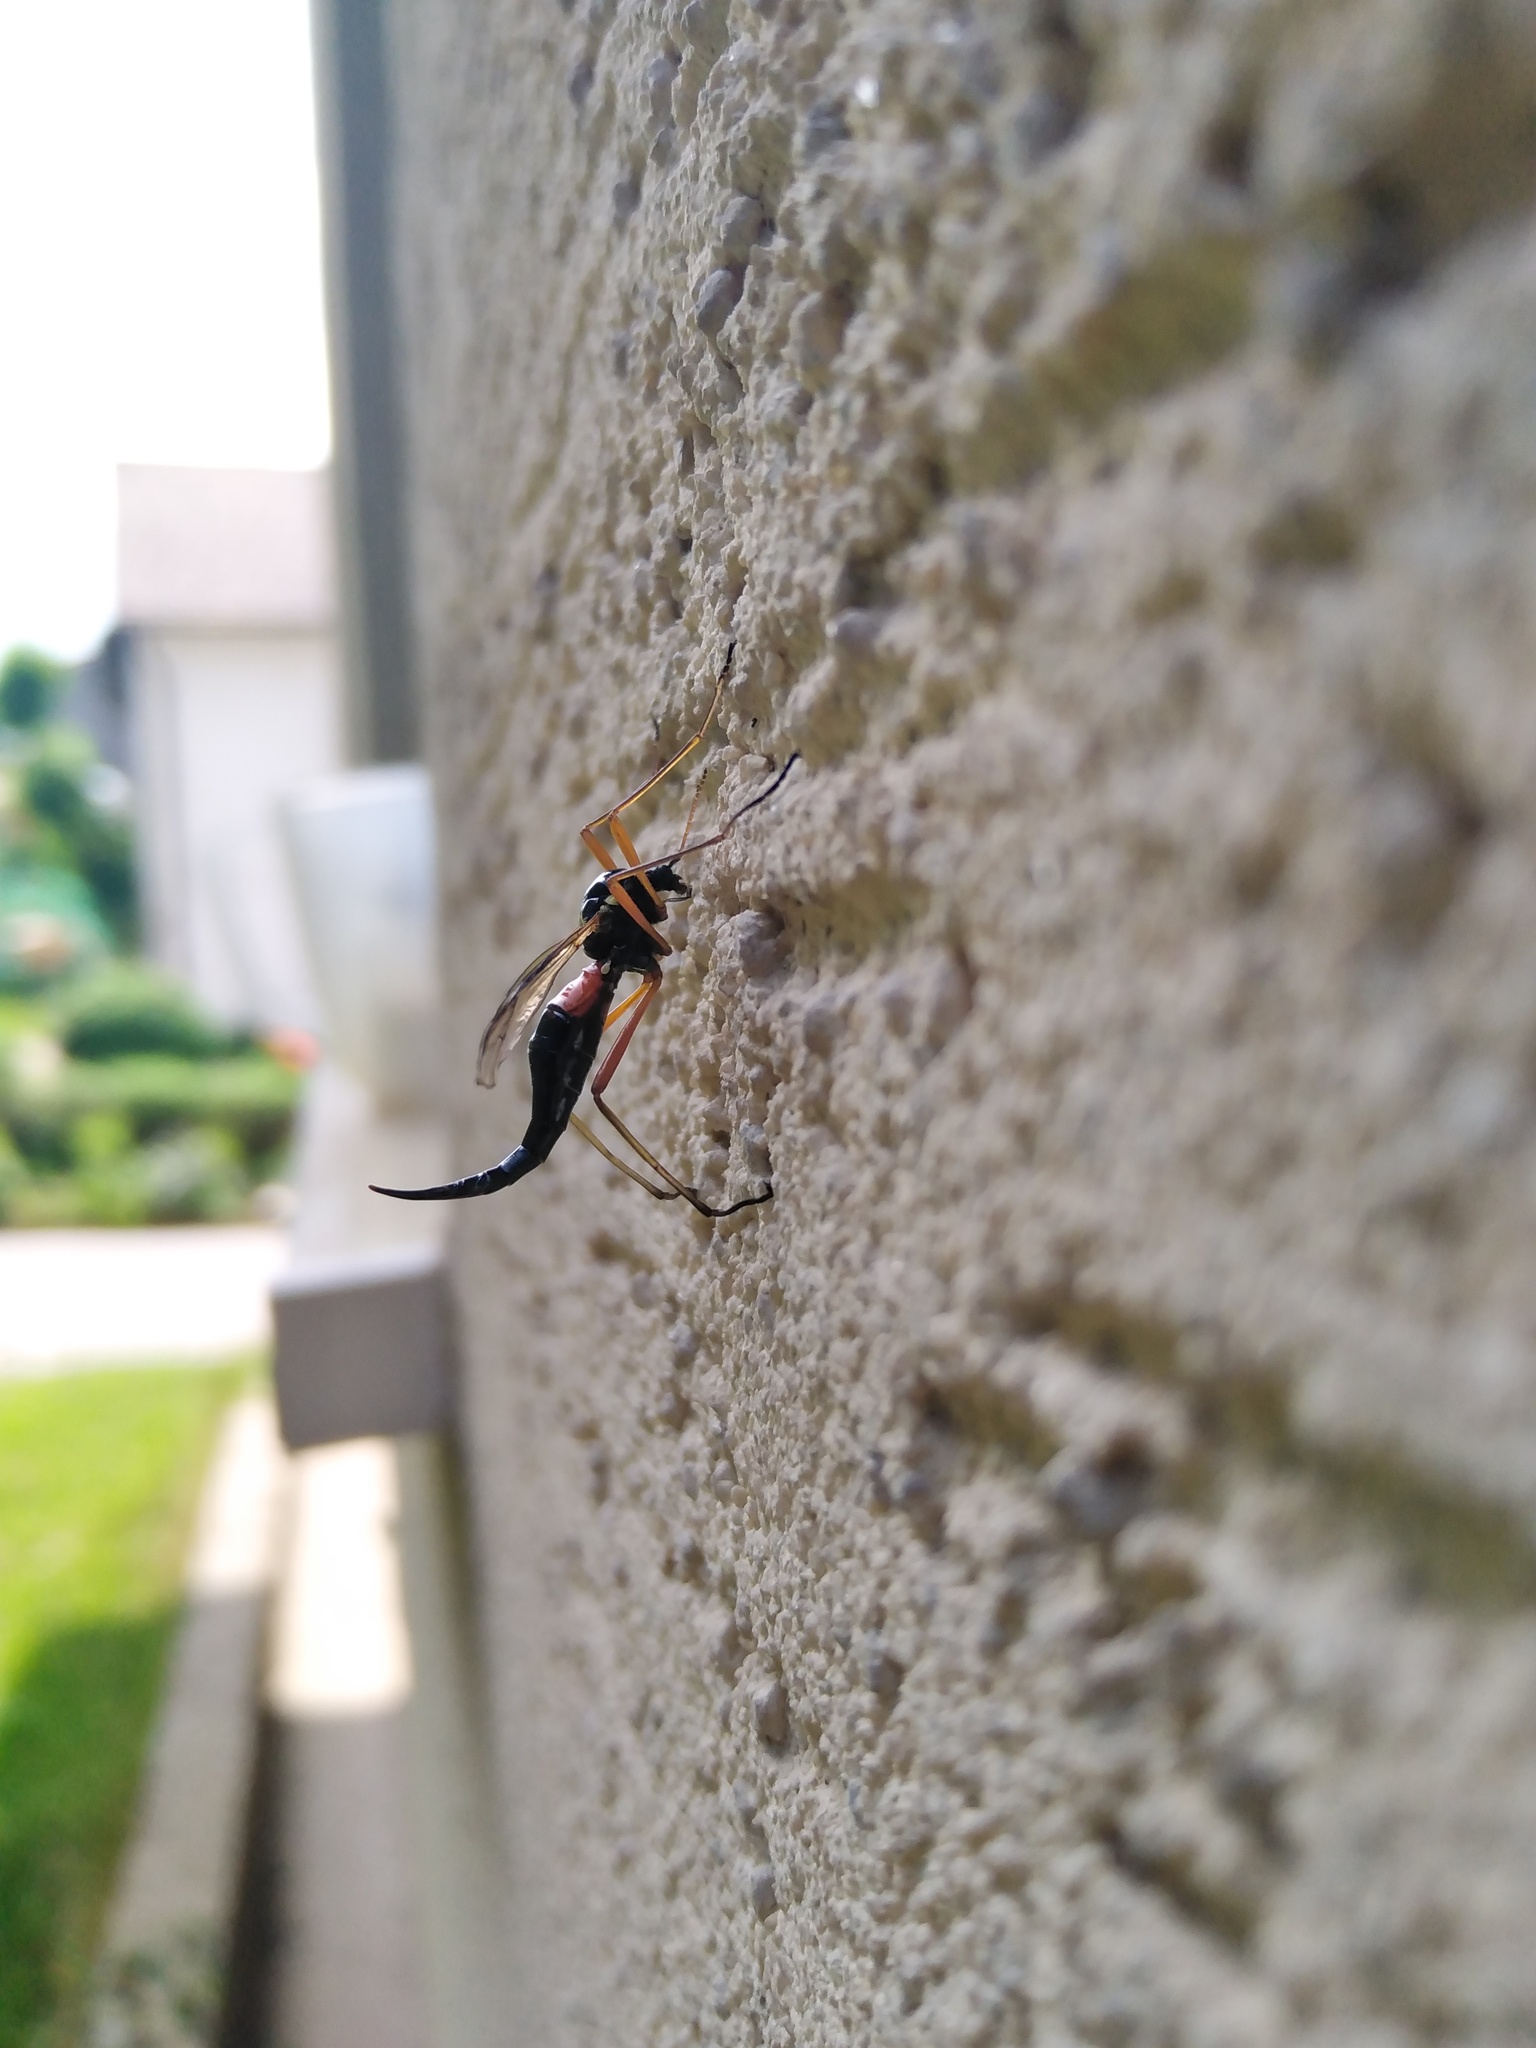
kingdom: Animalia
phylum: Arthropoda
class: Insecta
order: Diptera
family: Tipulidae
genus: Tanyptera
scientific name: Tanyptera atrata
